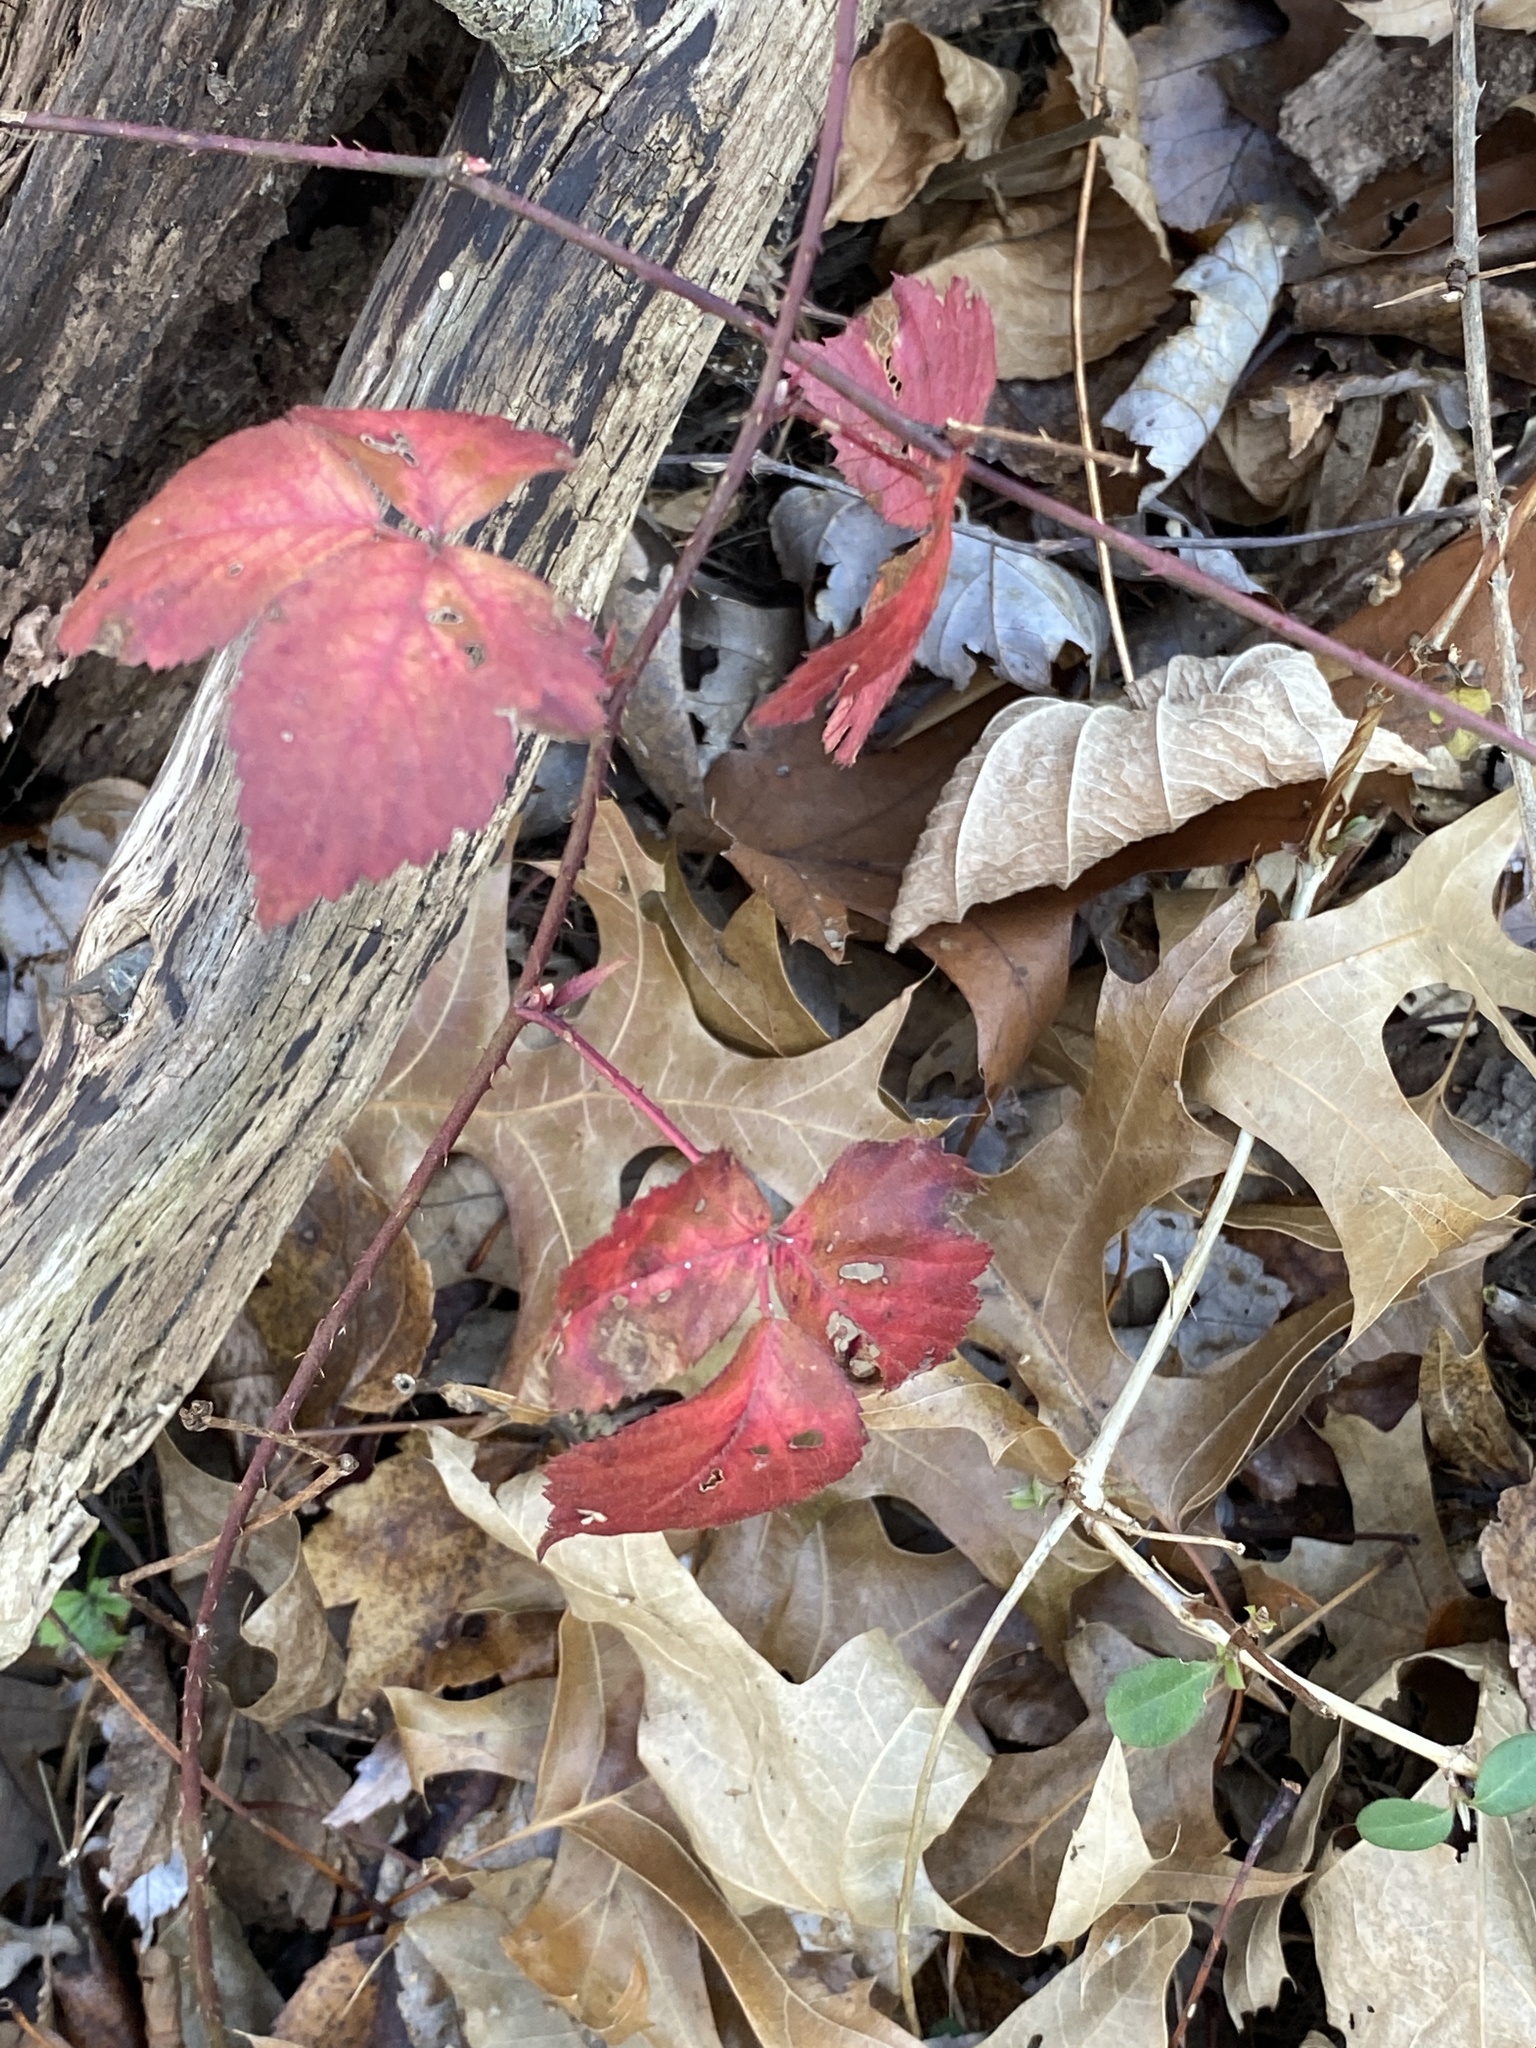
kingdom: Plantae
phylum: Tracheophyta
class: Magnoliopsida
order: Rosales
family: Rosaceae
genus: Rubus
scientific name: Rubus flagellaris
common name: American dewberry
